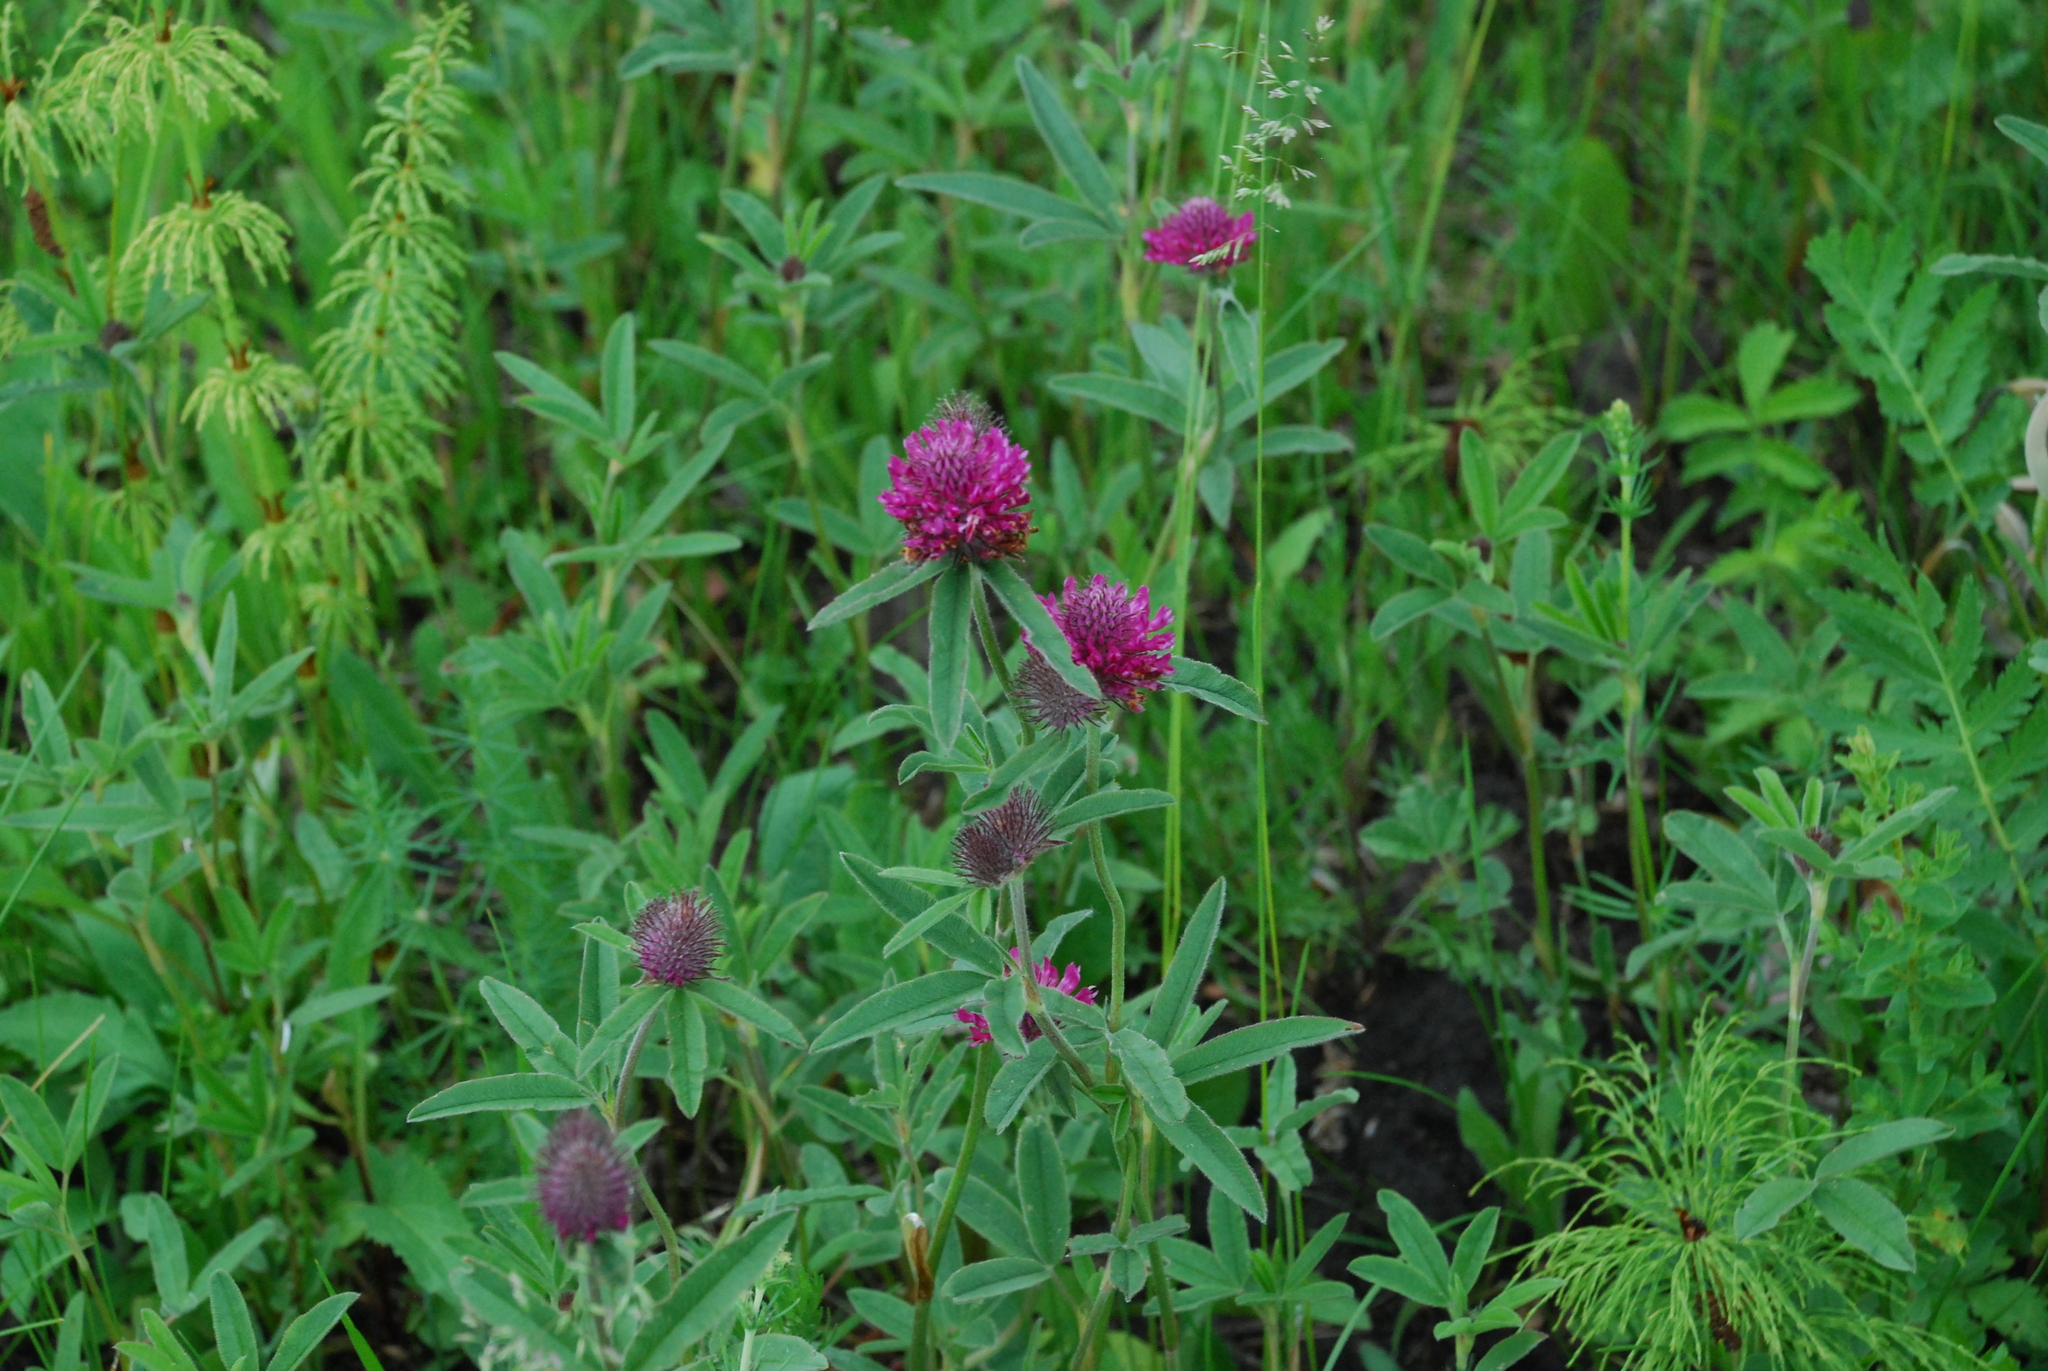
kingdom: Plantae
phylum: Tracheophyta
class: Magnoliopsida
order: Fabales
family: Fabaceae
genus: Trifolium
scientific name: Trifolium alpestre
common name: Owl-head clover
